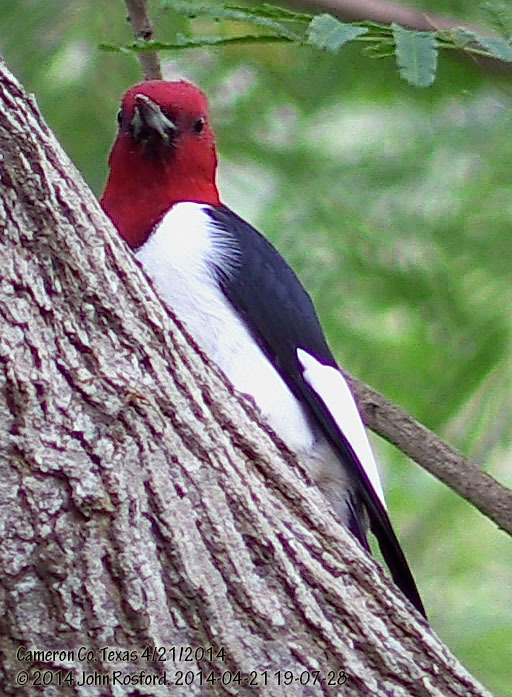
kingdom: Animalia
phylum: Chordata
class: Aves
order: Piciformes
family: Picidae
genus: Melanerpes
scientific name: Melanerpes erythrocephalus
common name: Red-headed woodpecker
